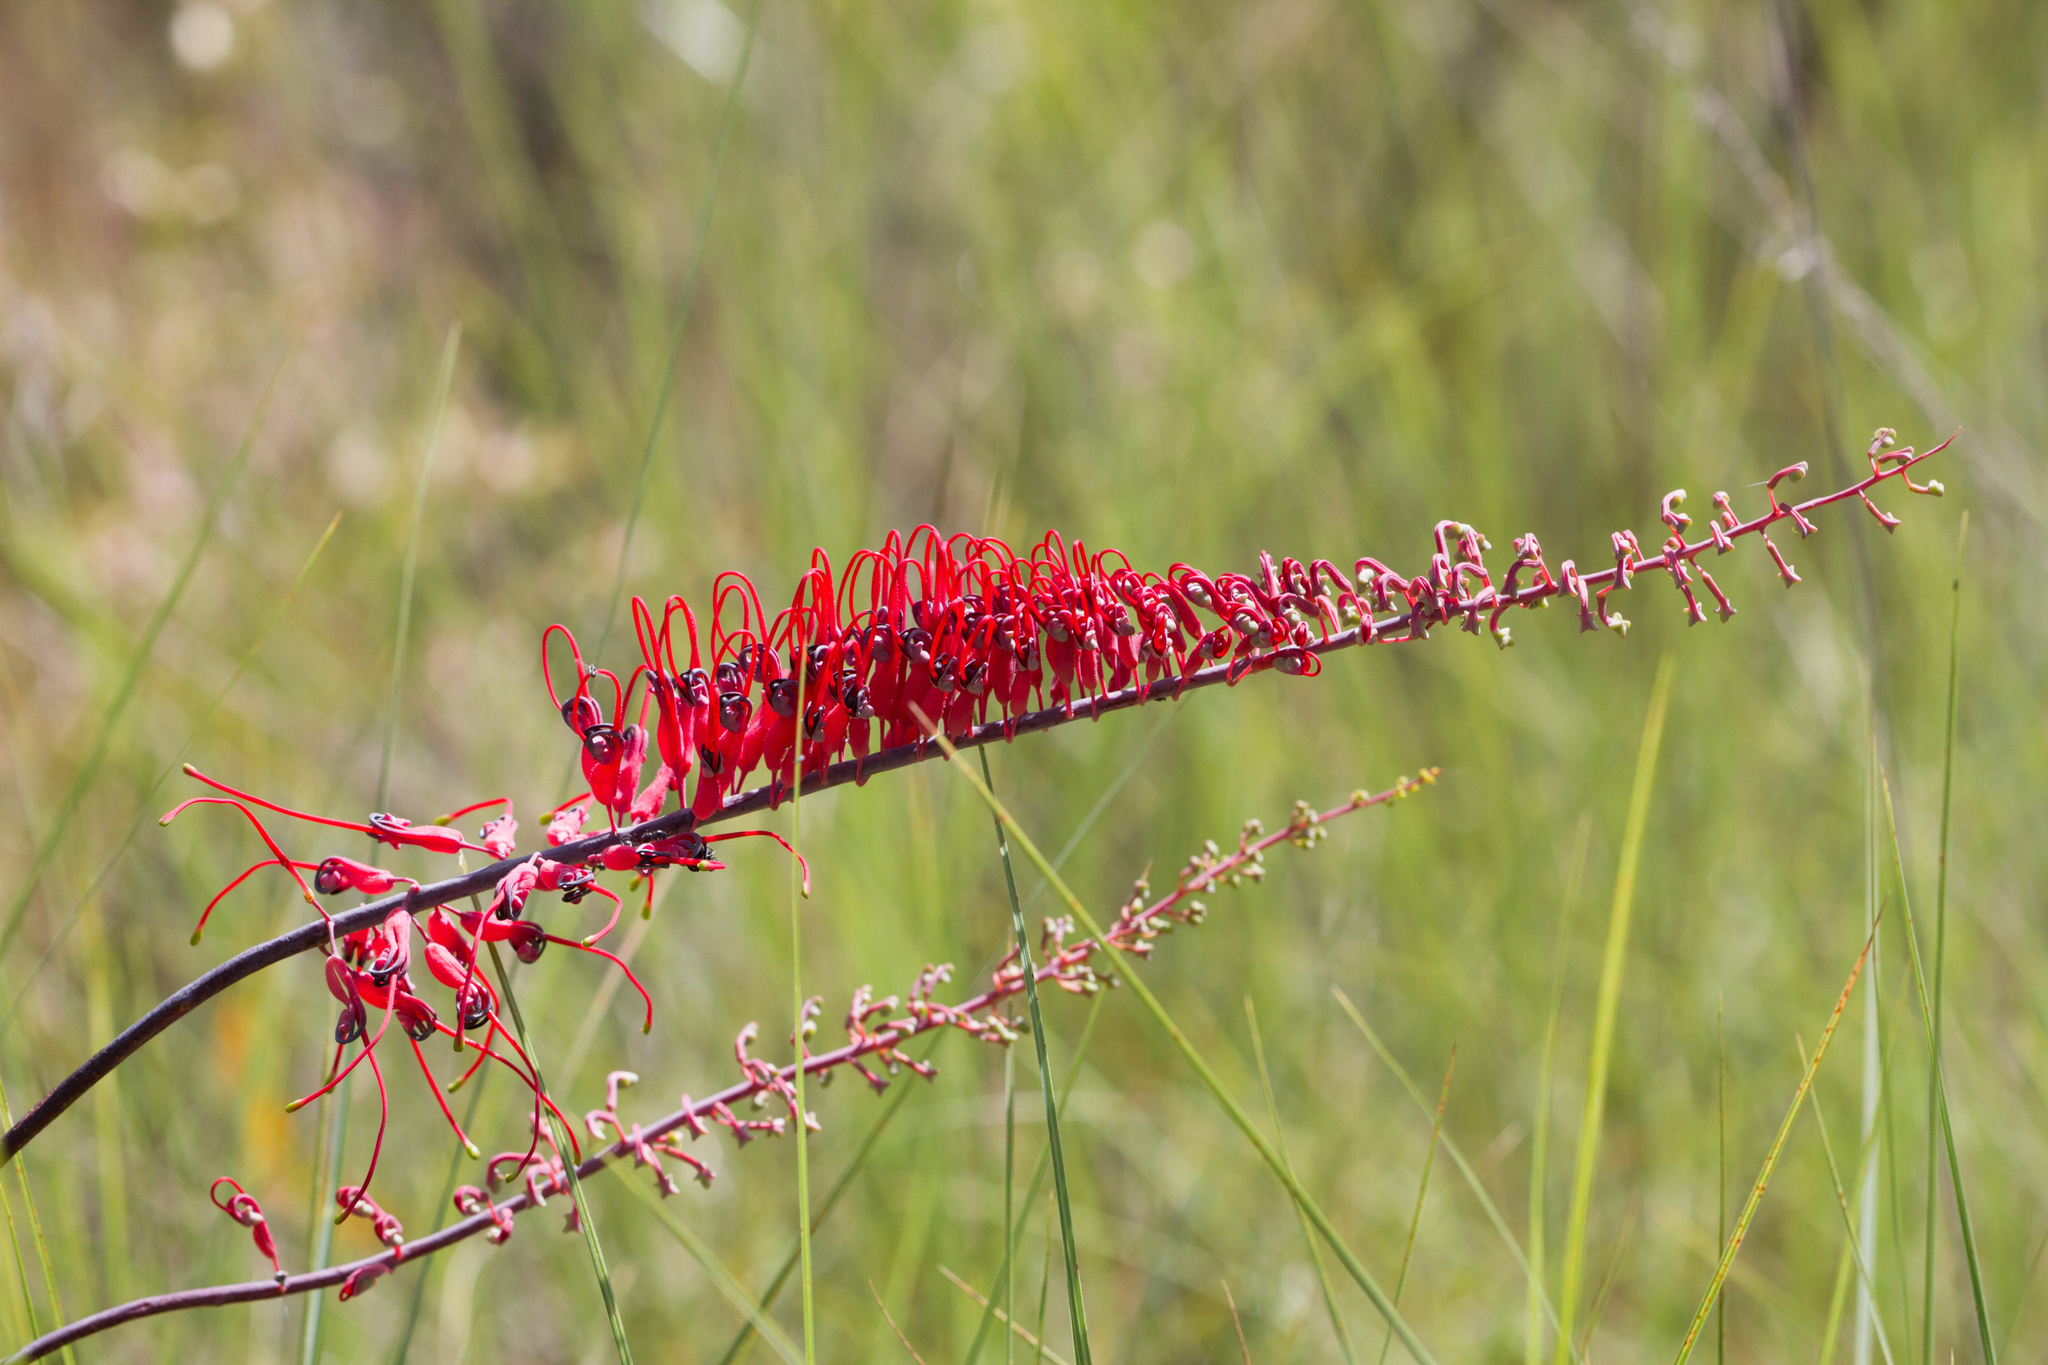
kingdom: Plantae
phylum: Tracheophyta
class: Magnoliopsida
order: Proteales
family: Proteaceae
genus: Grevillea
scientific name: Grevillea dryandri
